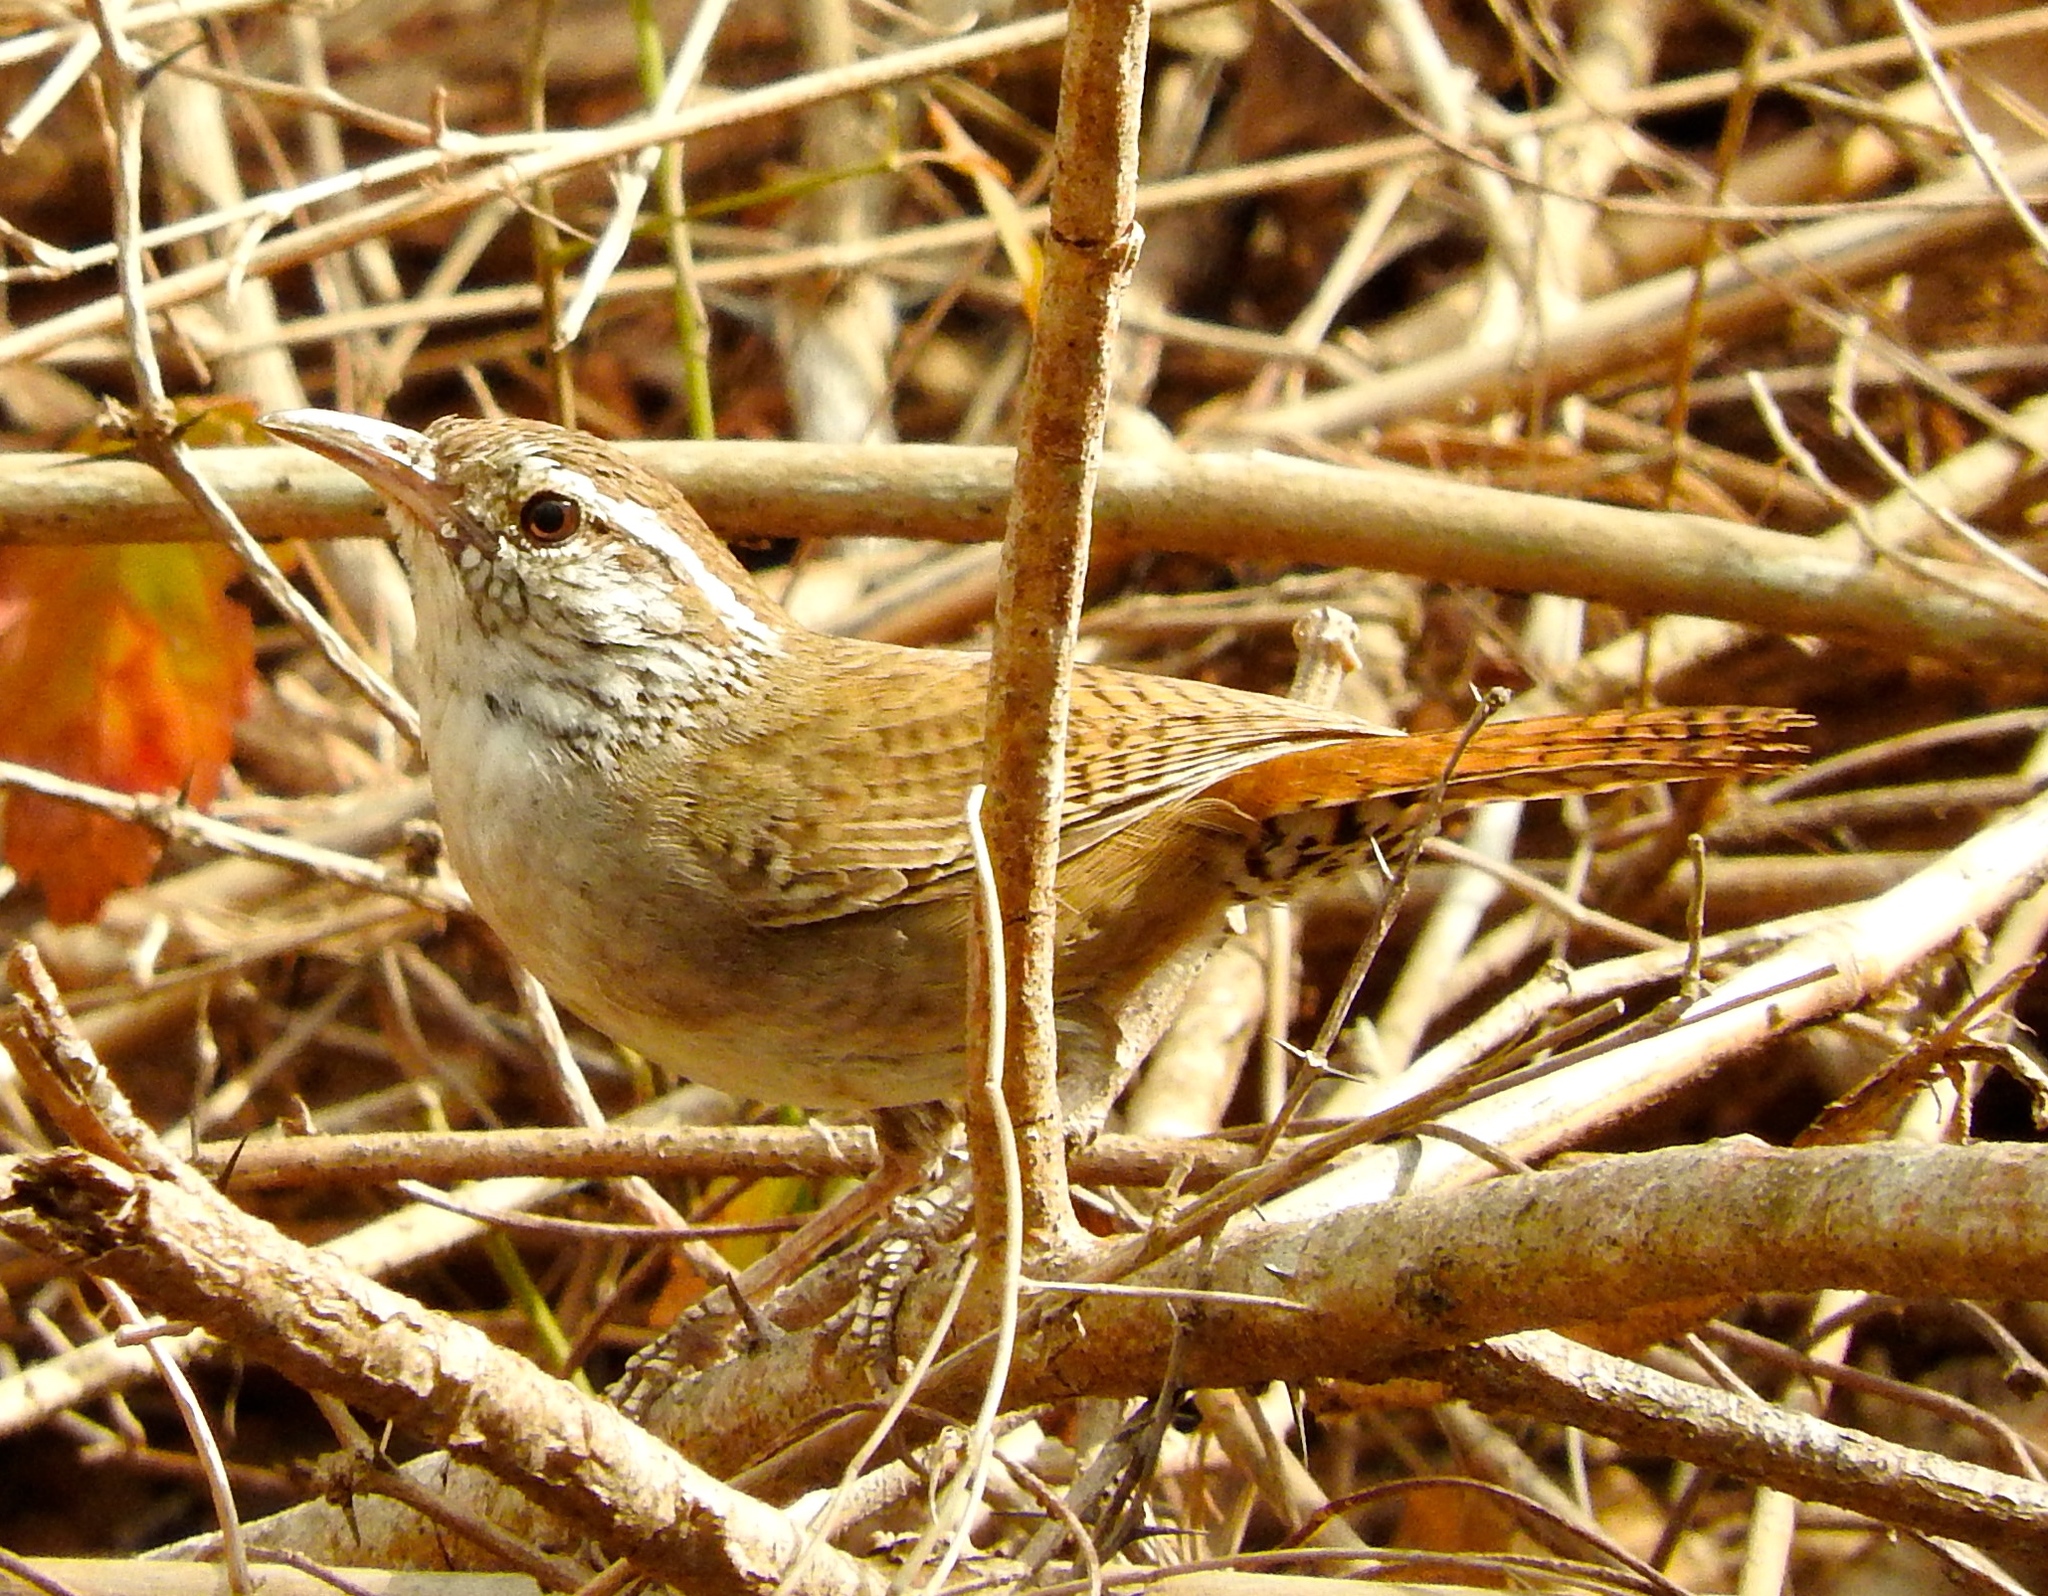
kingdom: Animalia
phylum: Chordata
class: Aves
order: Passeriformes
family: Troglodytidae
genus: Thryophilus
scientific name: Thryophilus sinaloa
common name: Sinaloa wren
